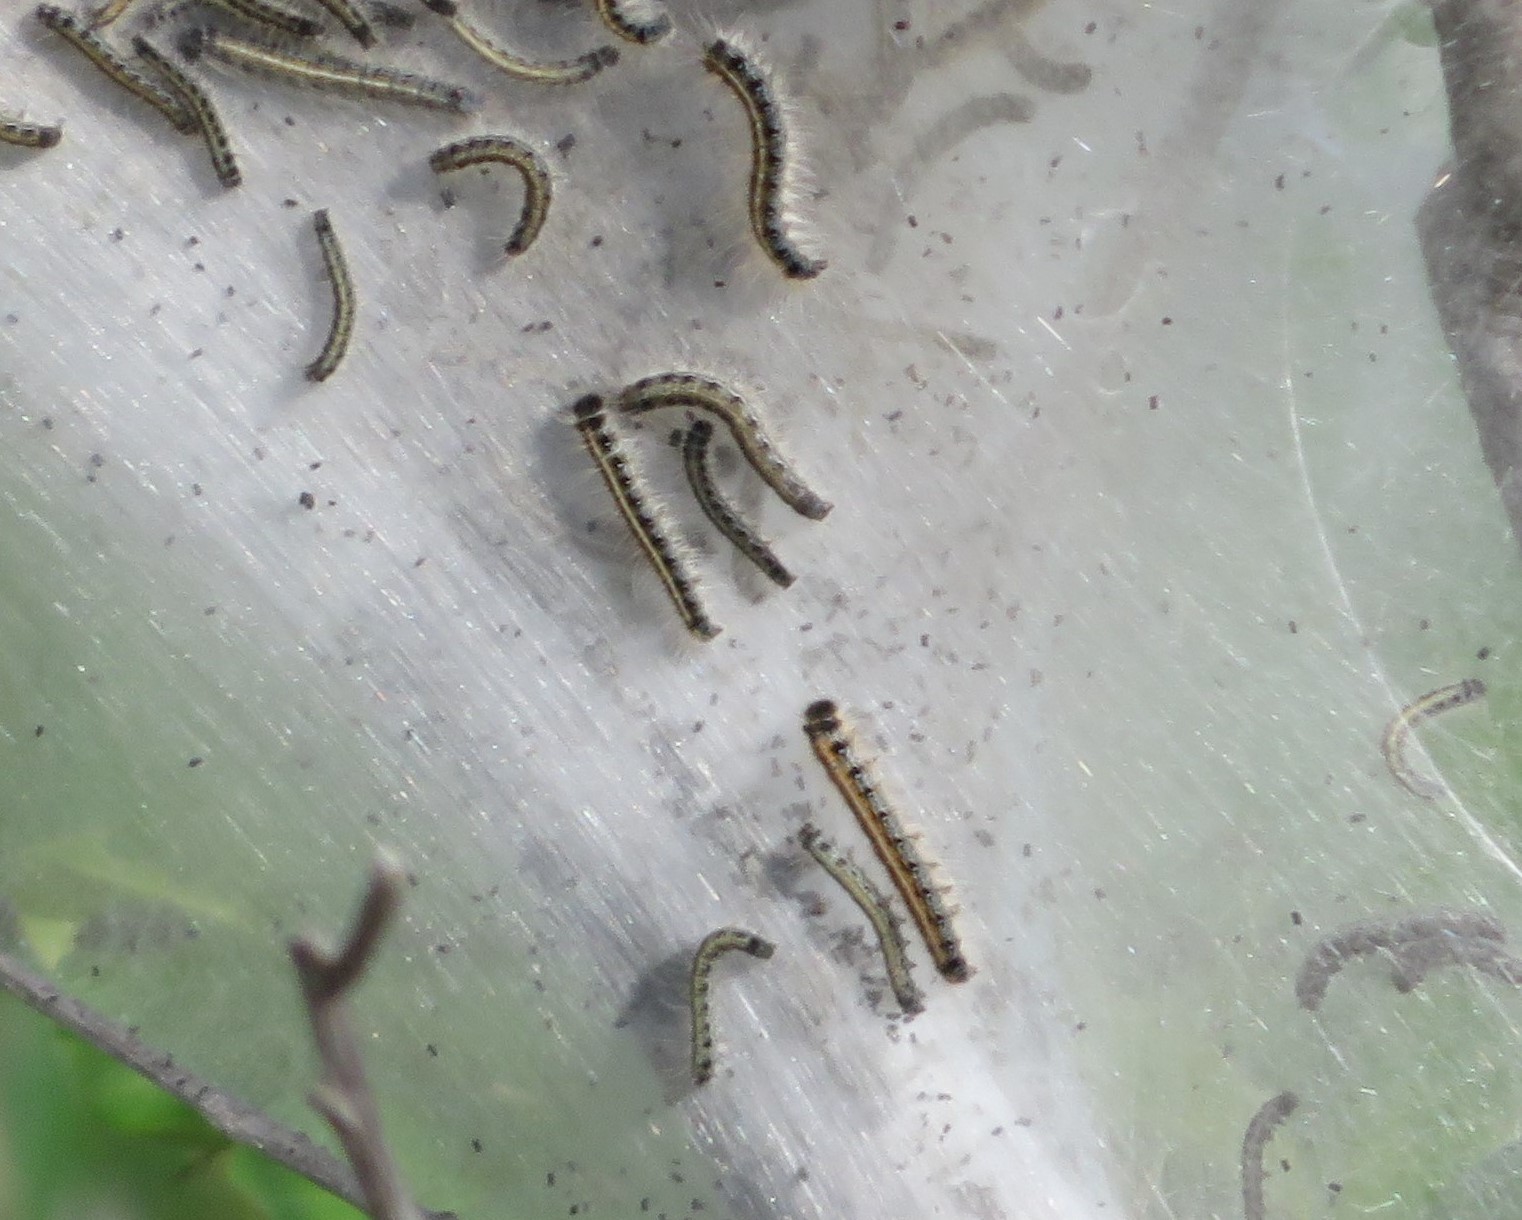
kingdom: Animalia
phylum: Arthropoda
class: Insecta
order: Lepidoptera
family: Lasiocampidae
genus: Malacosoma
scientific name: Malacosoma americana
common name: Eastern tent caterpillar moth
